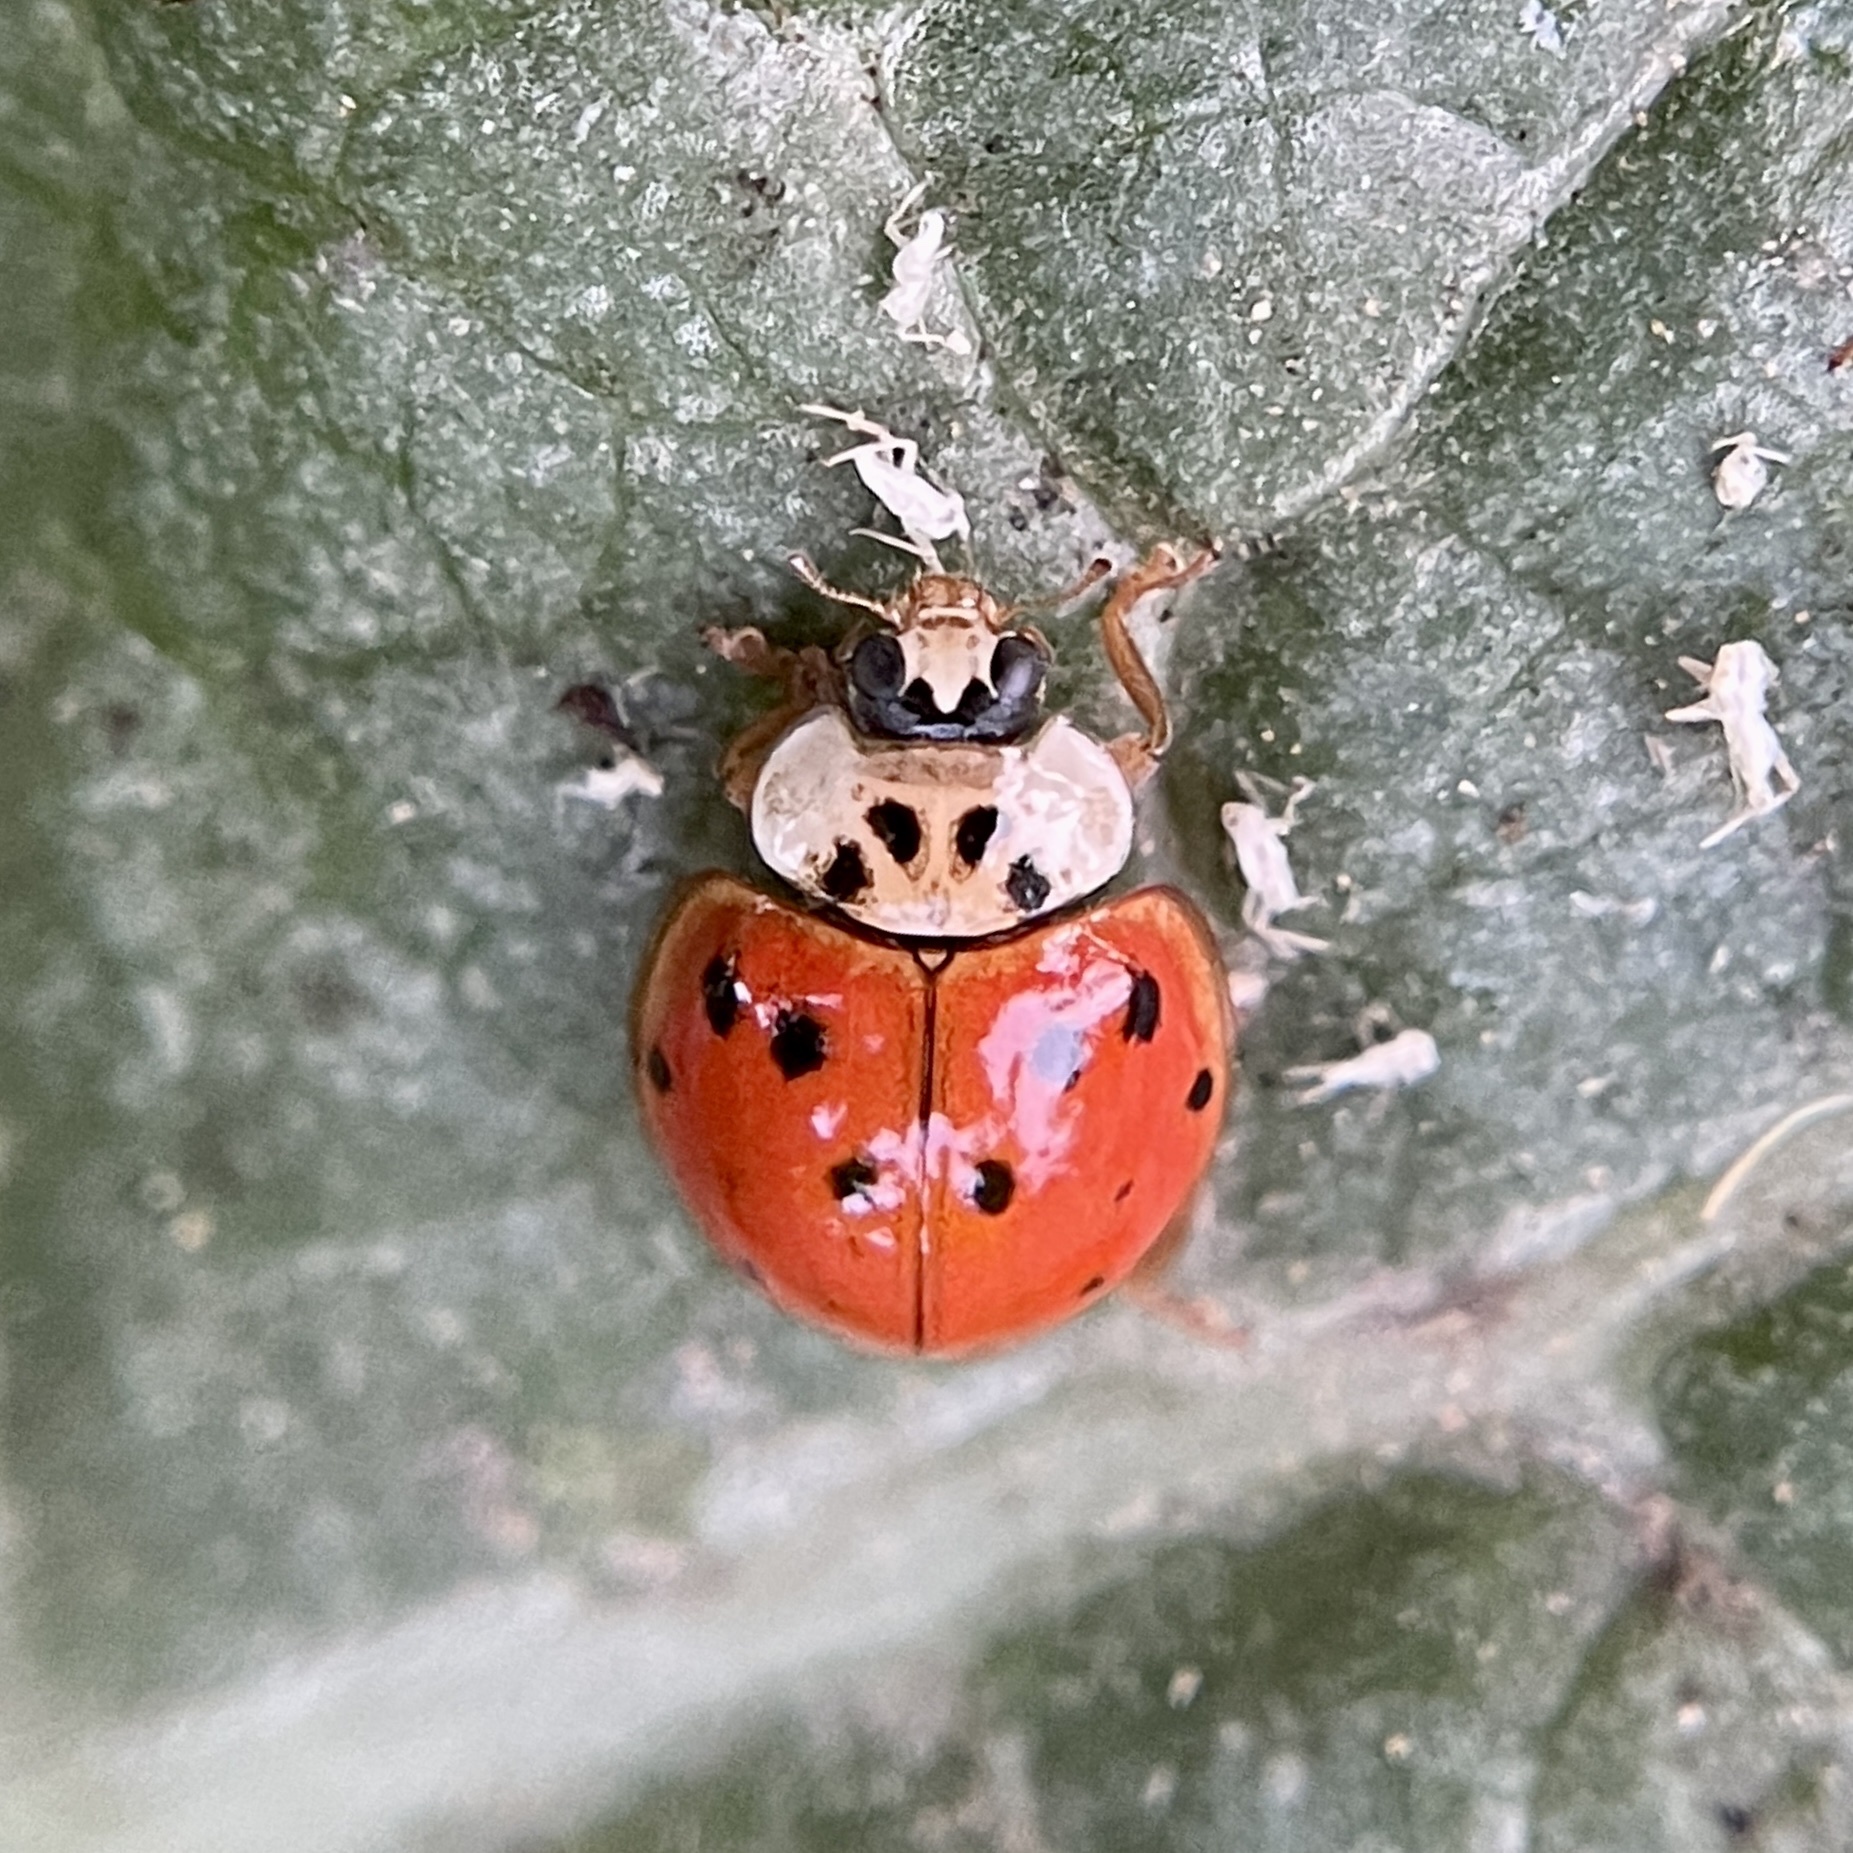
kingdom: Animalia
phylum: Arthropoda
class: Insecta
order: Coleoptera
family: Coccinellidae
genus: Harmonia
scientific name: Harmonia axyridis
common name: Harlequin ladybird
